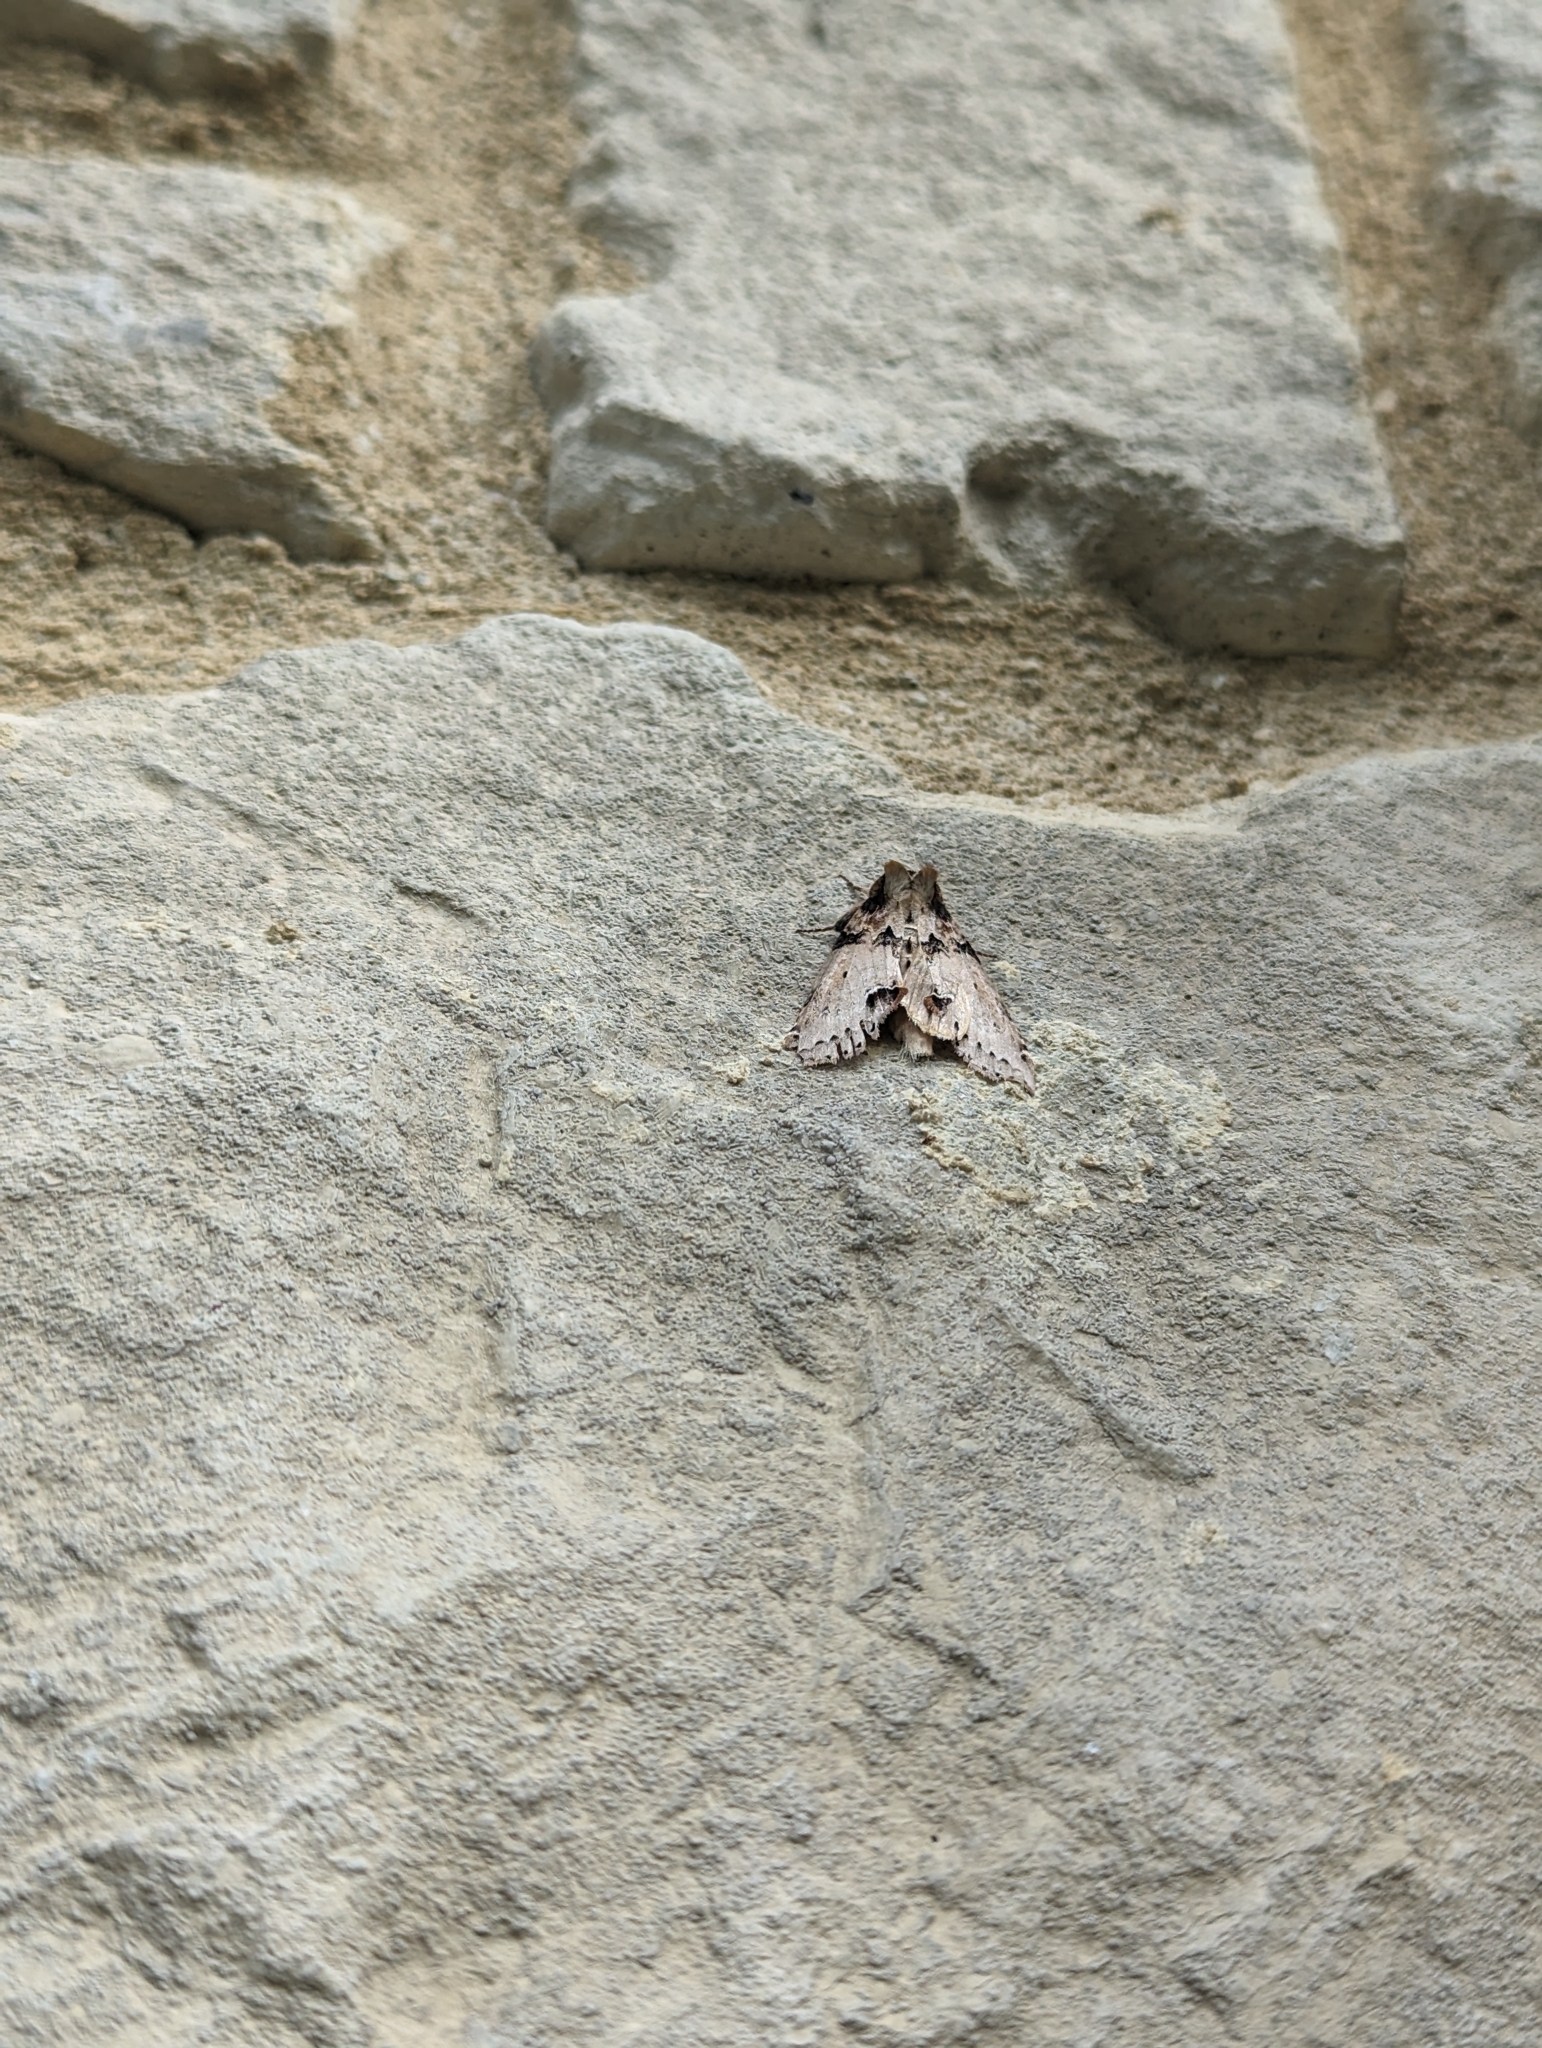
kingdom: Animalia
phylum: Arthropoda
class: Insecta
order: Lepidoptera
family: Drepanidae
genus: Pseudothyatira
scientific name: Pseudothyatira cymatophoroides
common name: Tufted thyatirid moth
